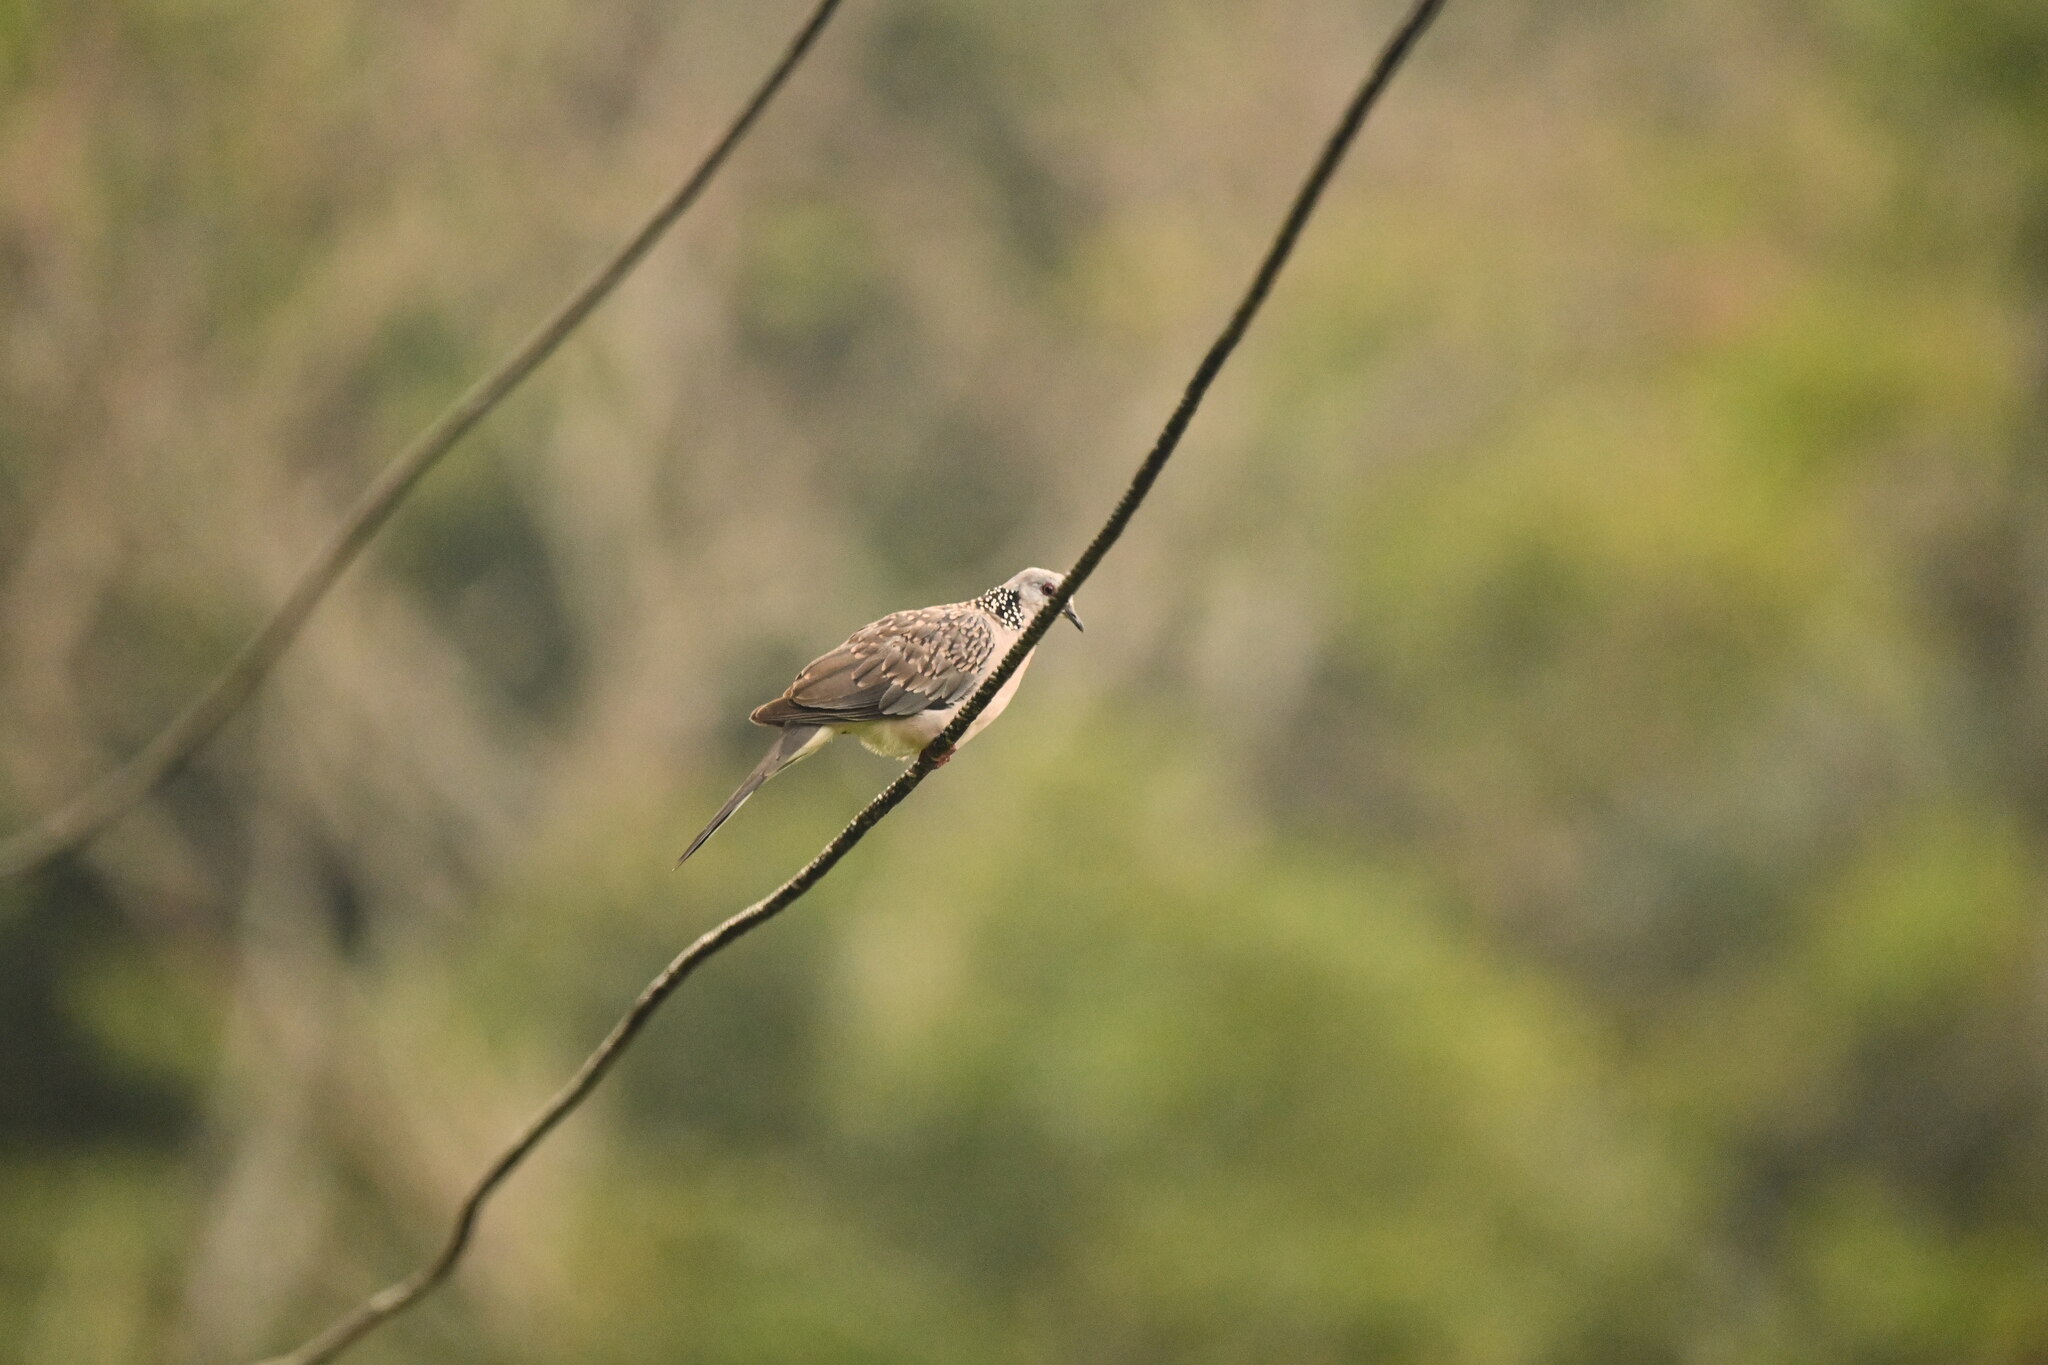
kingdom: Animalia
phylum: Chordata
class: Aves
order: Columbiformes
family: Columbidae
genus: Spilopelia
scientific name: Spilopelia chinensis
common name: Spotted dove
